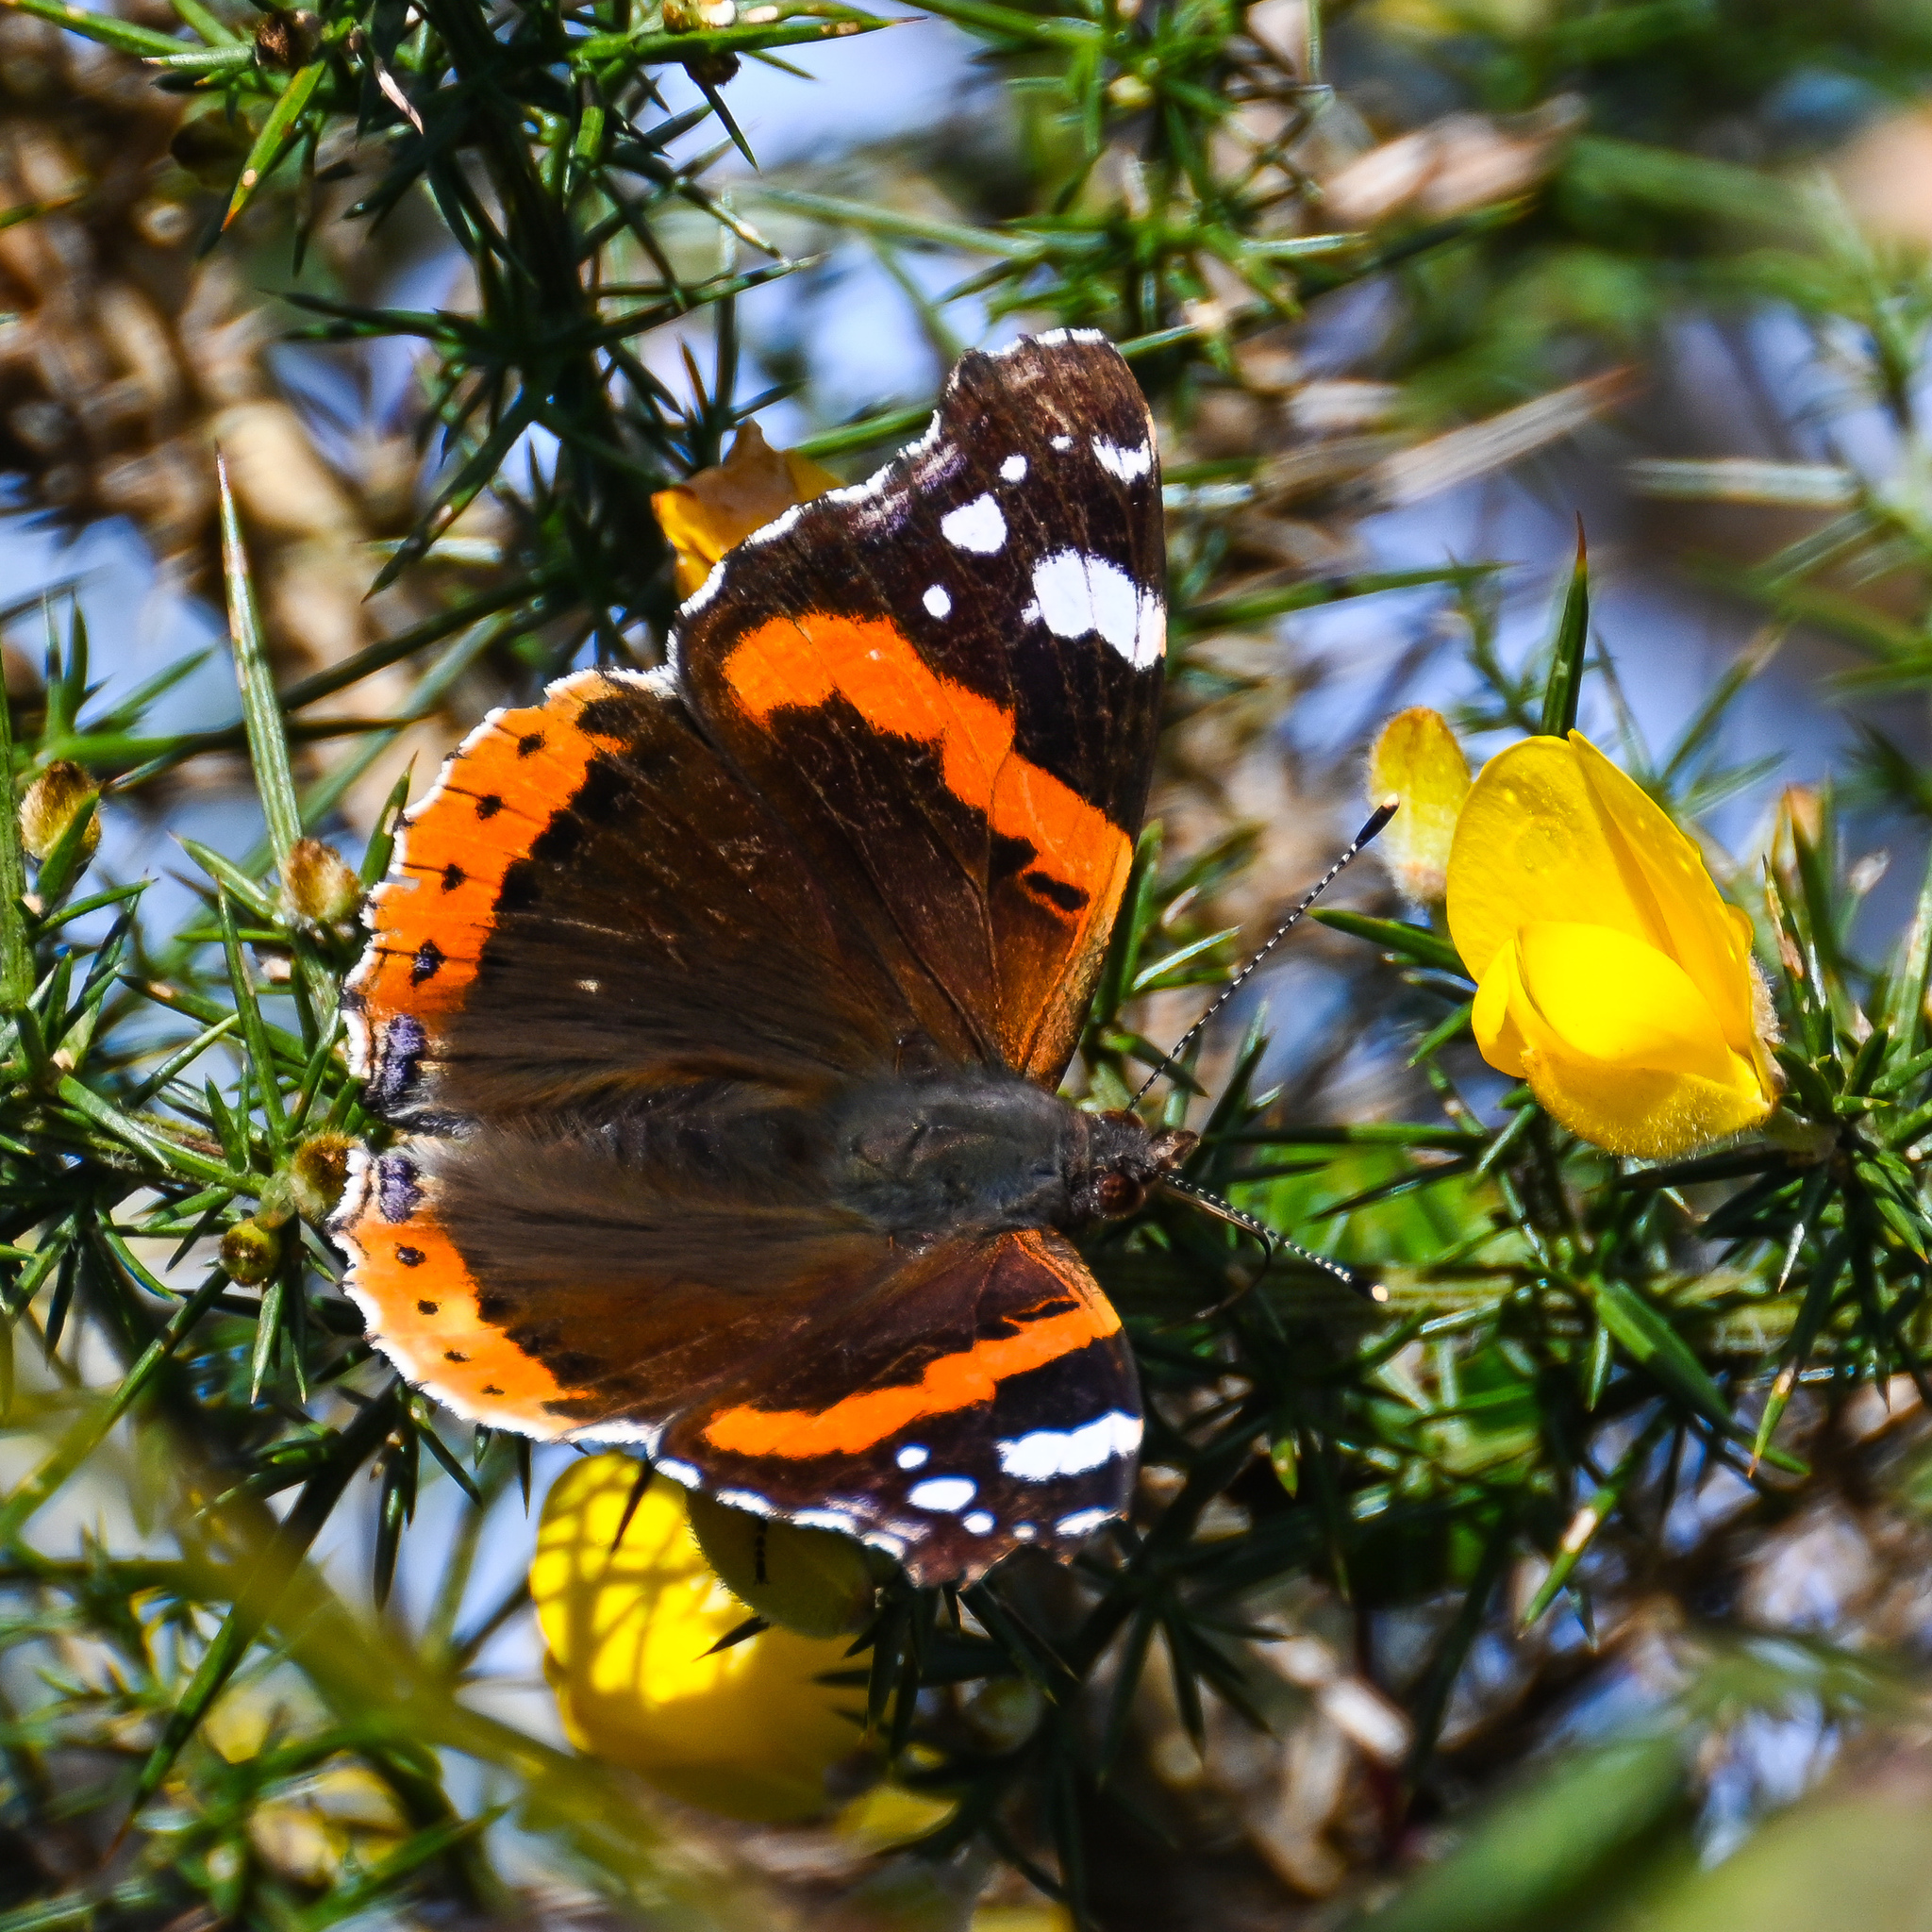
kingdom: Animalia
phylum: Arthropoda
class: Insecta
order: Lepidoptera
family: Nymphalidae
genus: Vanessa
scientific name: Vanessa atalanta
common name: Red admiral
